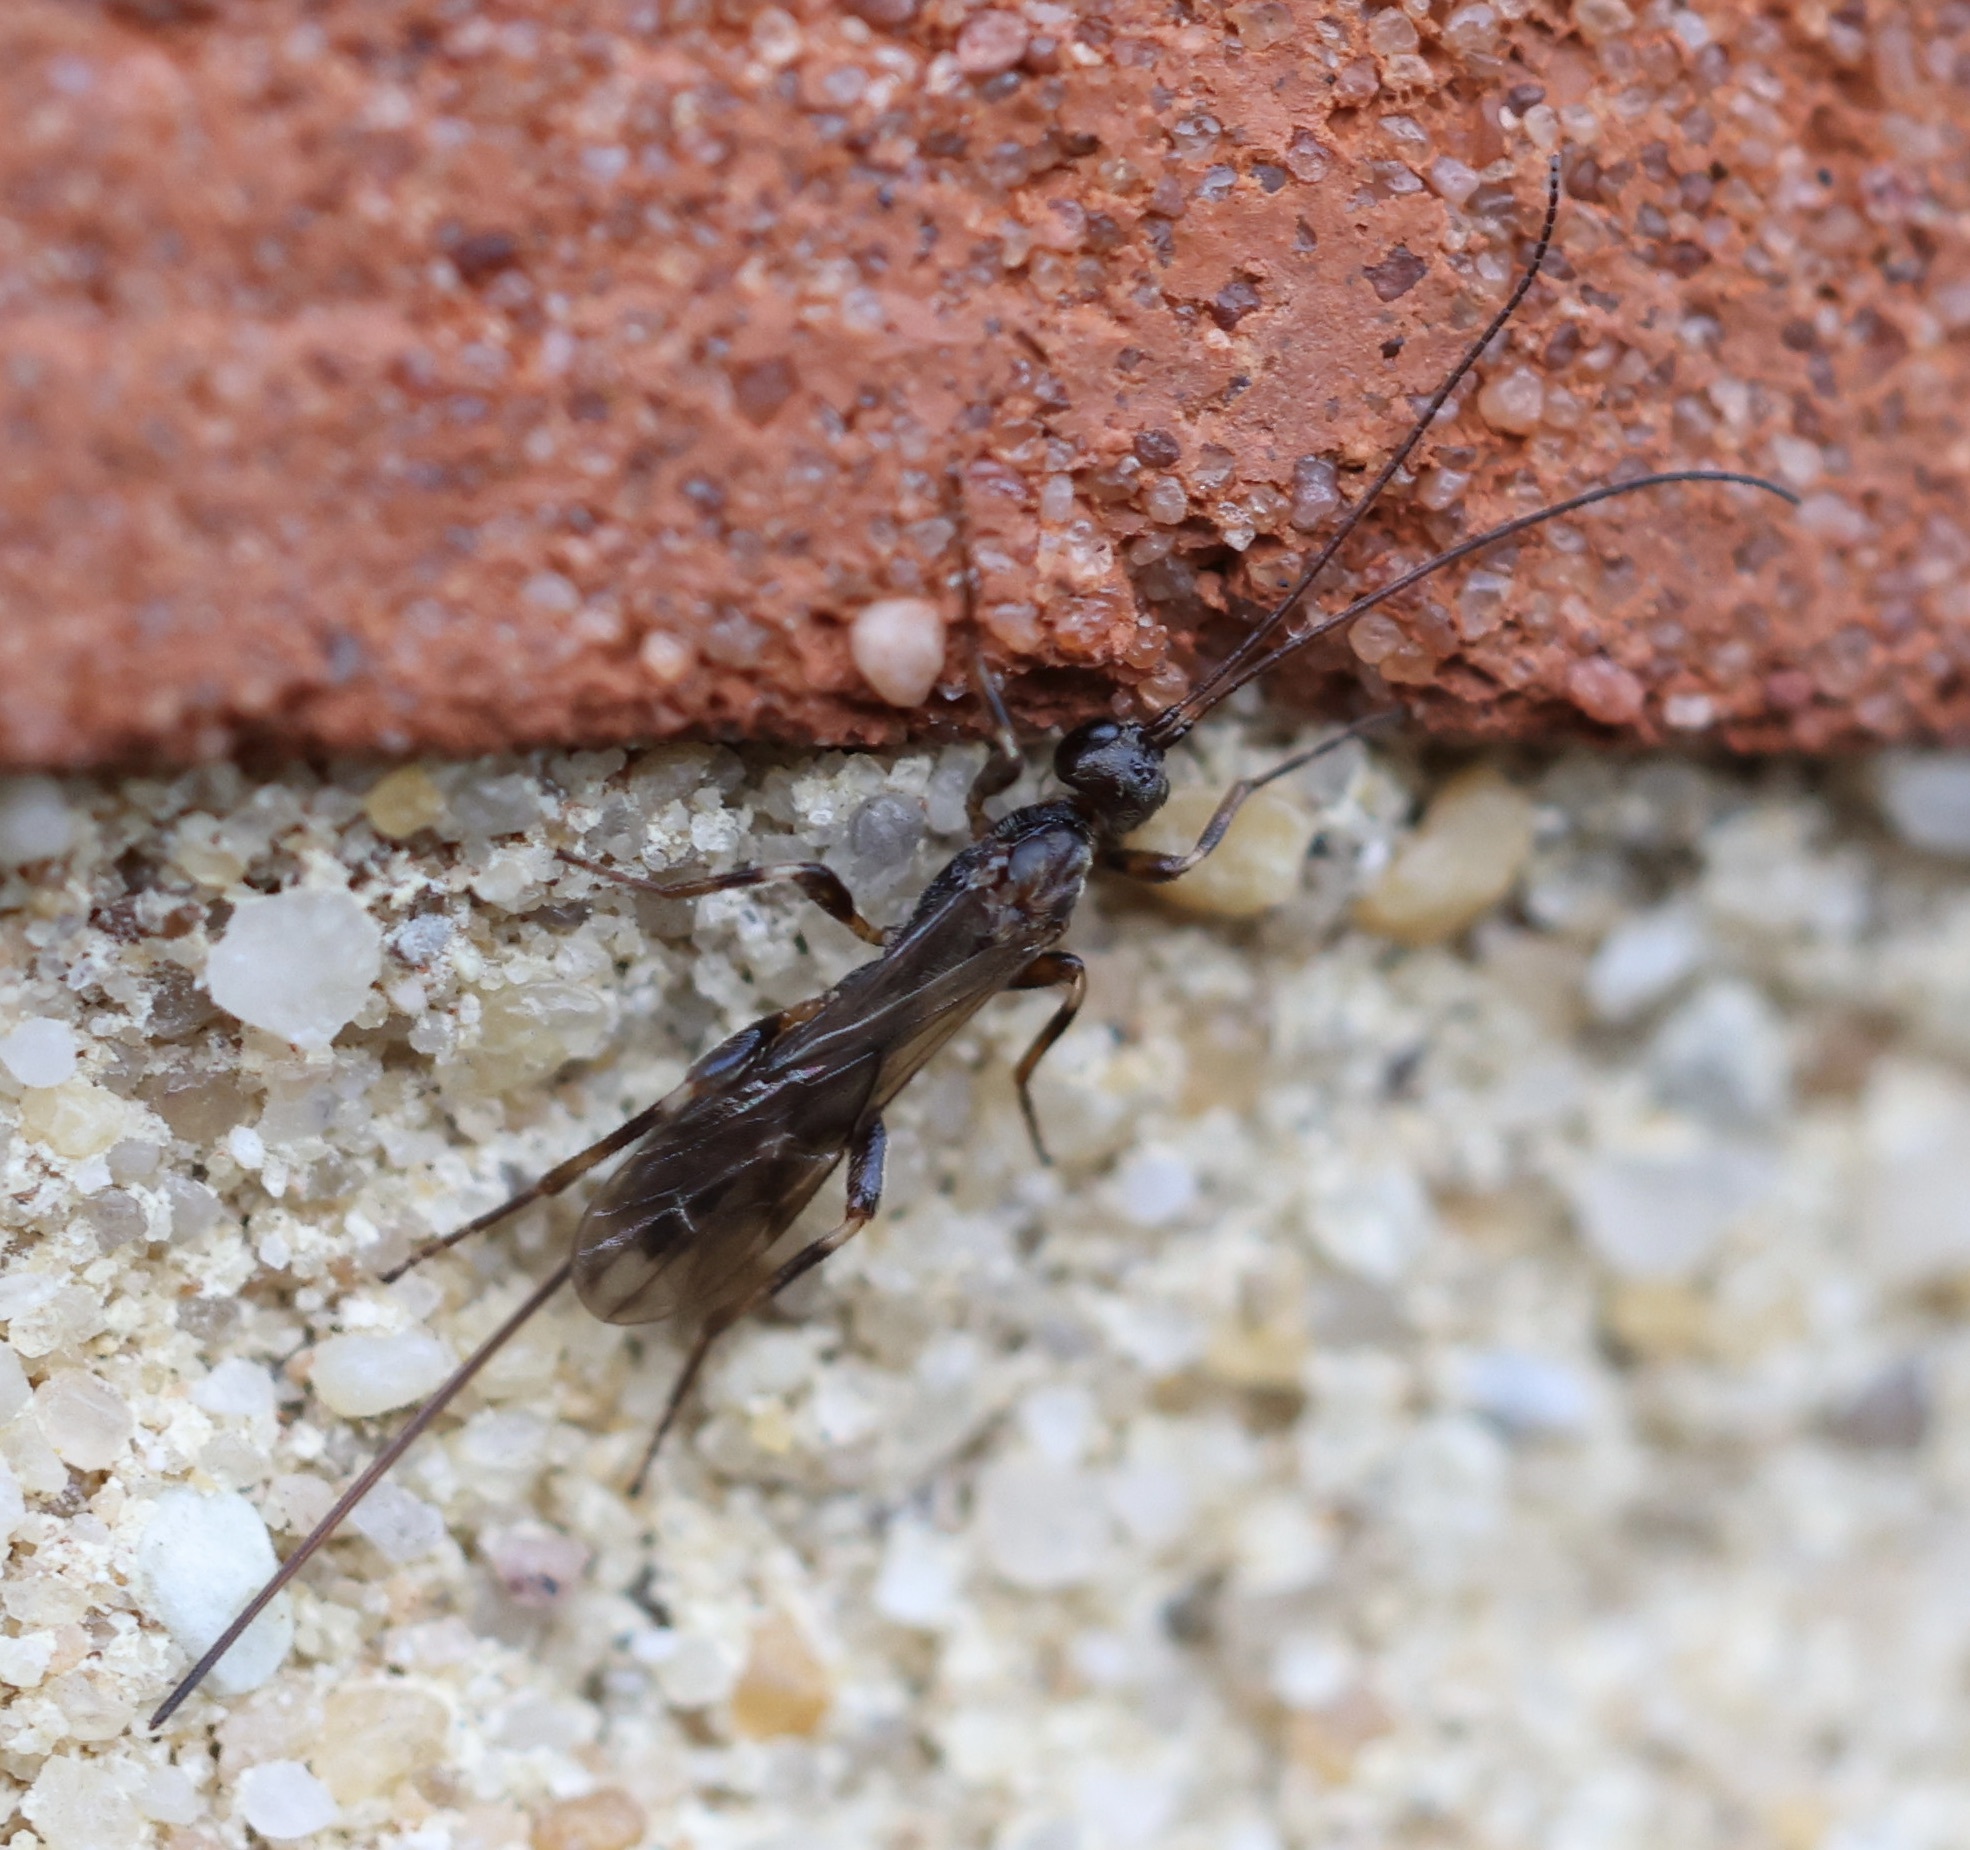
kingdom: Animalia
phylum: Arthropoda
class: Insecta
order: Hymenoptera
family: Braconidae
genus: Wachsmannia
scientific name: Wachsmannia spathiiformis
